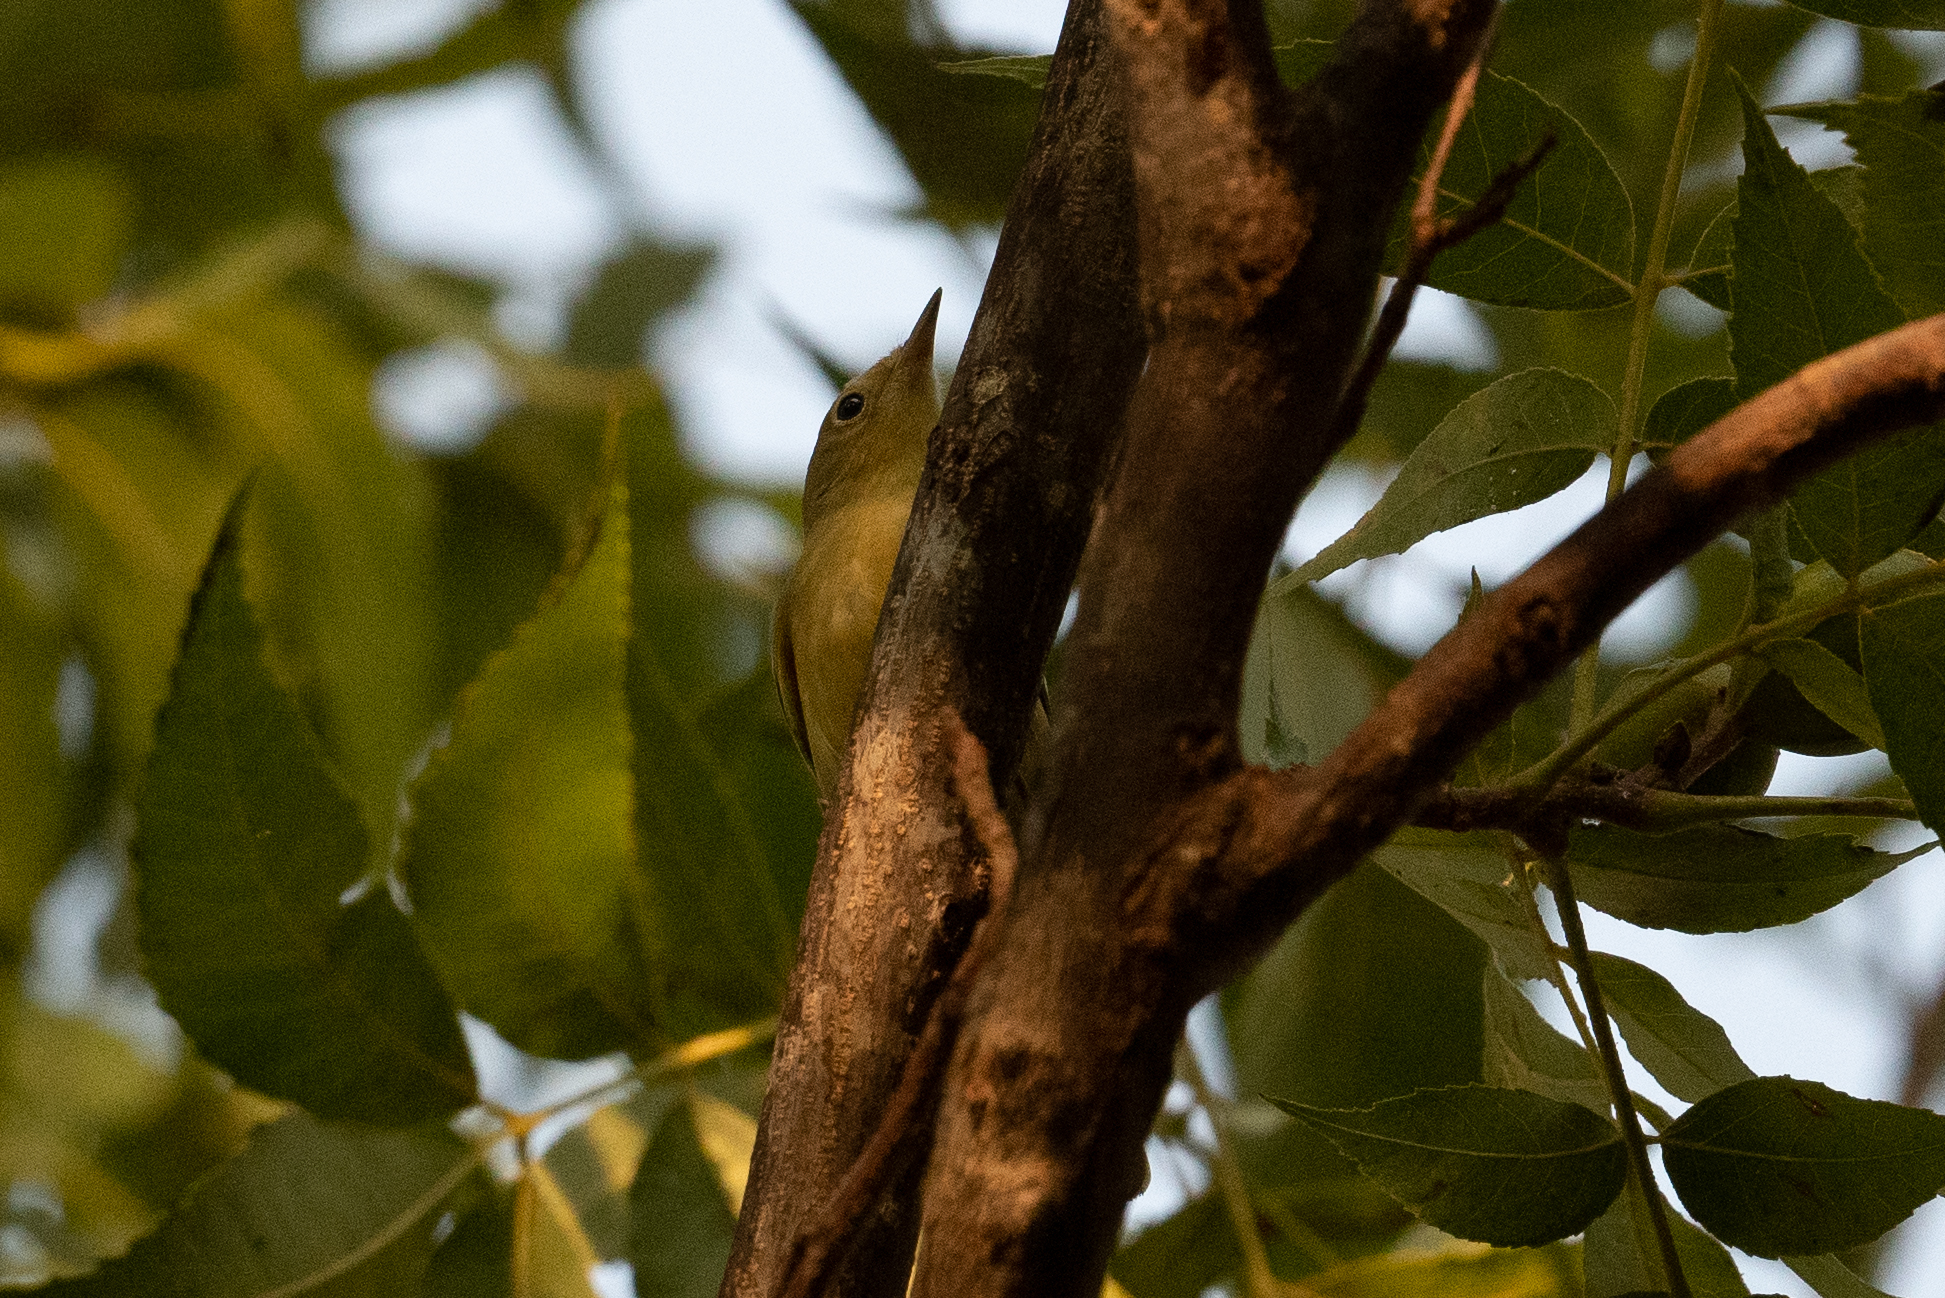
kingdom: Animalia
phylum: Chordata
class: Aves
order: Passeriformes
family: Parulidae
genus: Setophaga
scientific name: Setophaga petechia
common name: Yellow warbler
